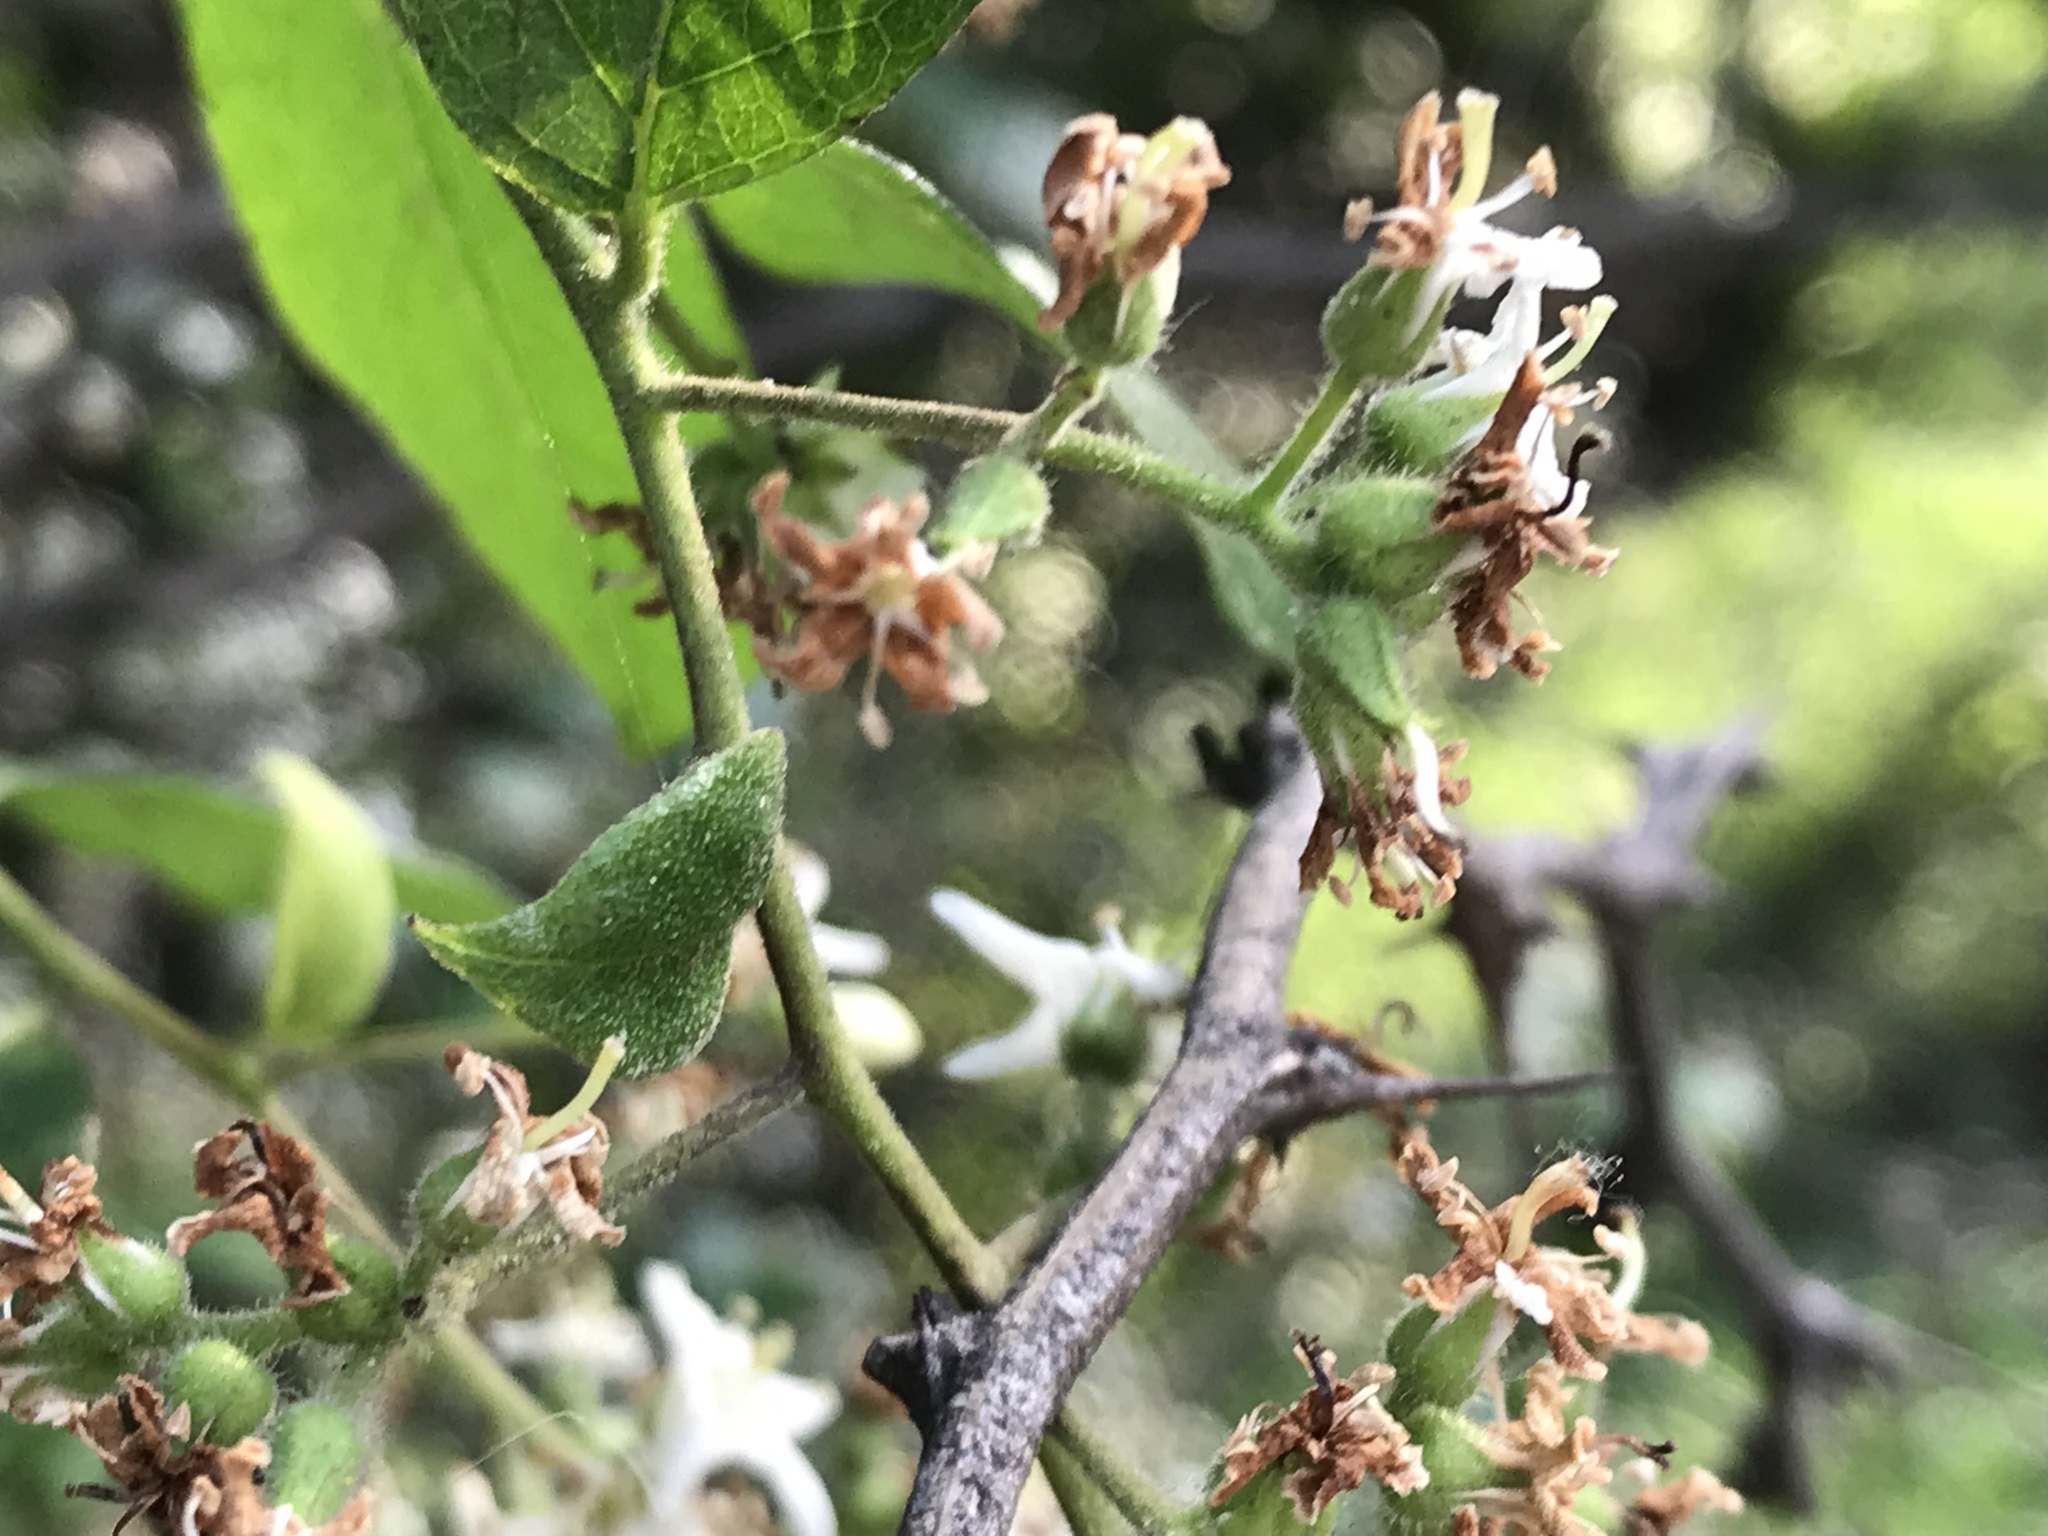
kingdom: Plantae
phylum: Tracheophyta
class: Magnoliopsida
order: Boraginales
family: Ehretiaceae
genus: Ehretia
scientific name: Ehretia anacua
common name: Sugarberry
